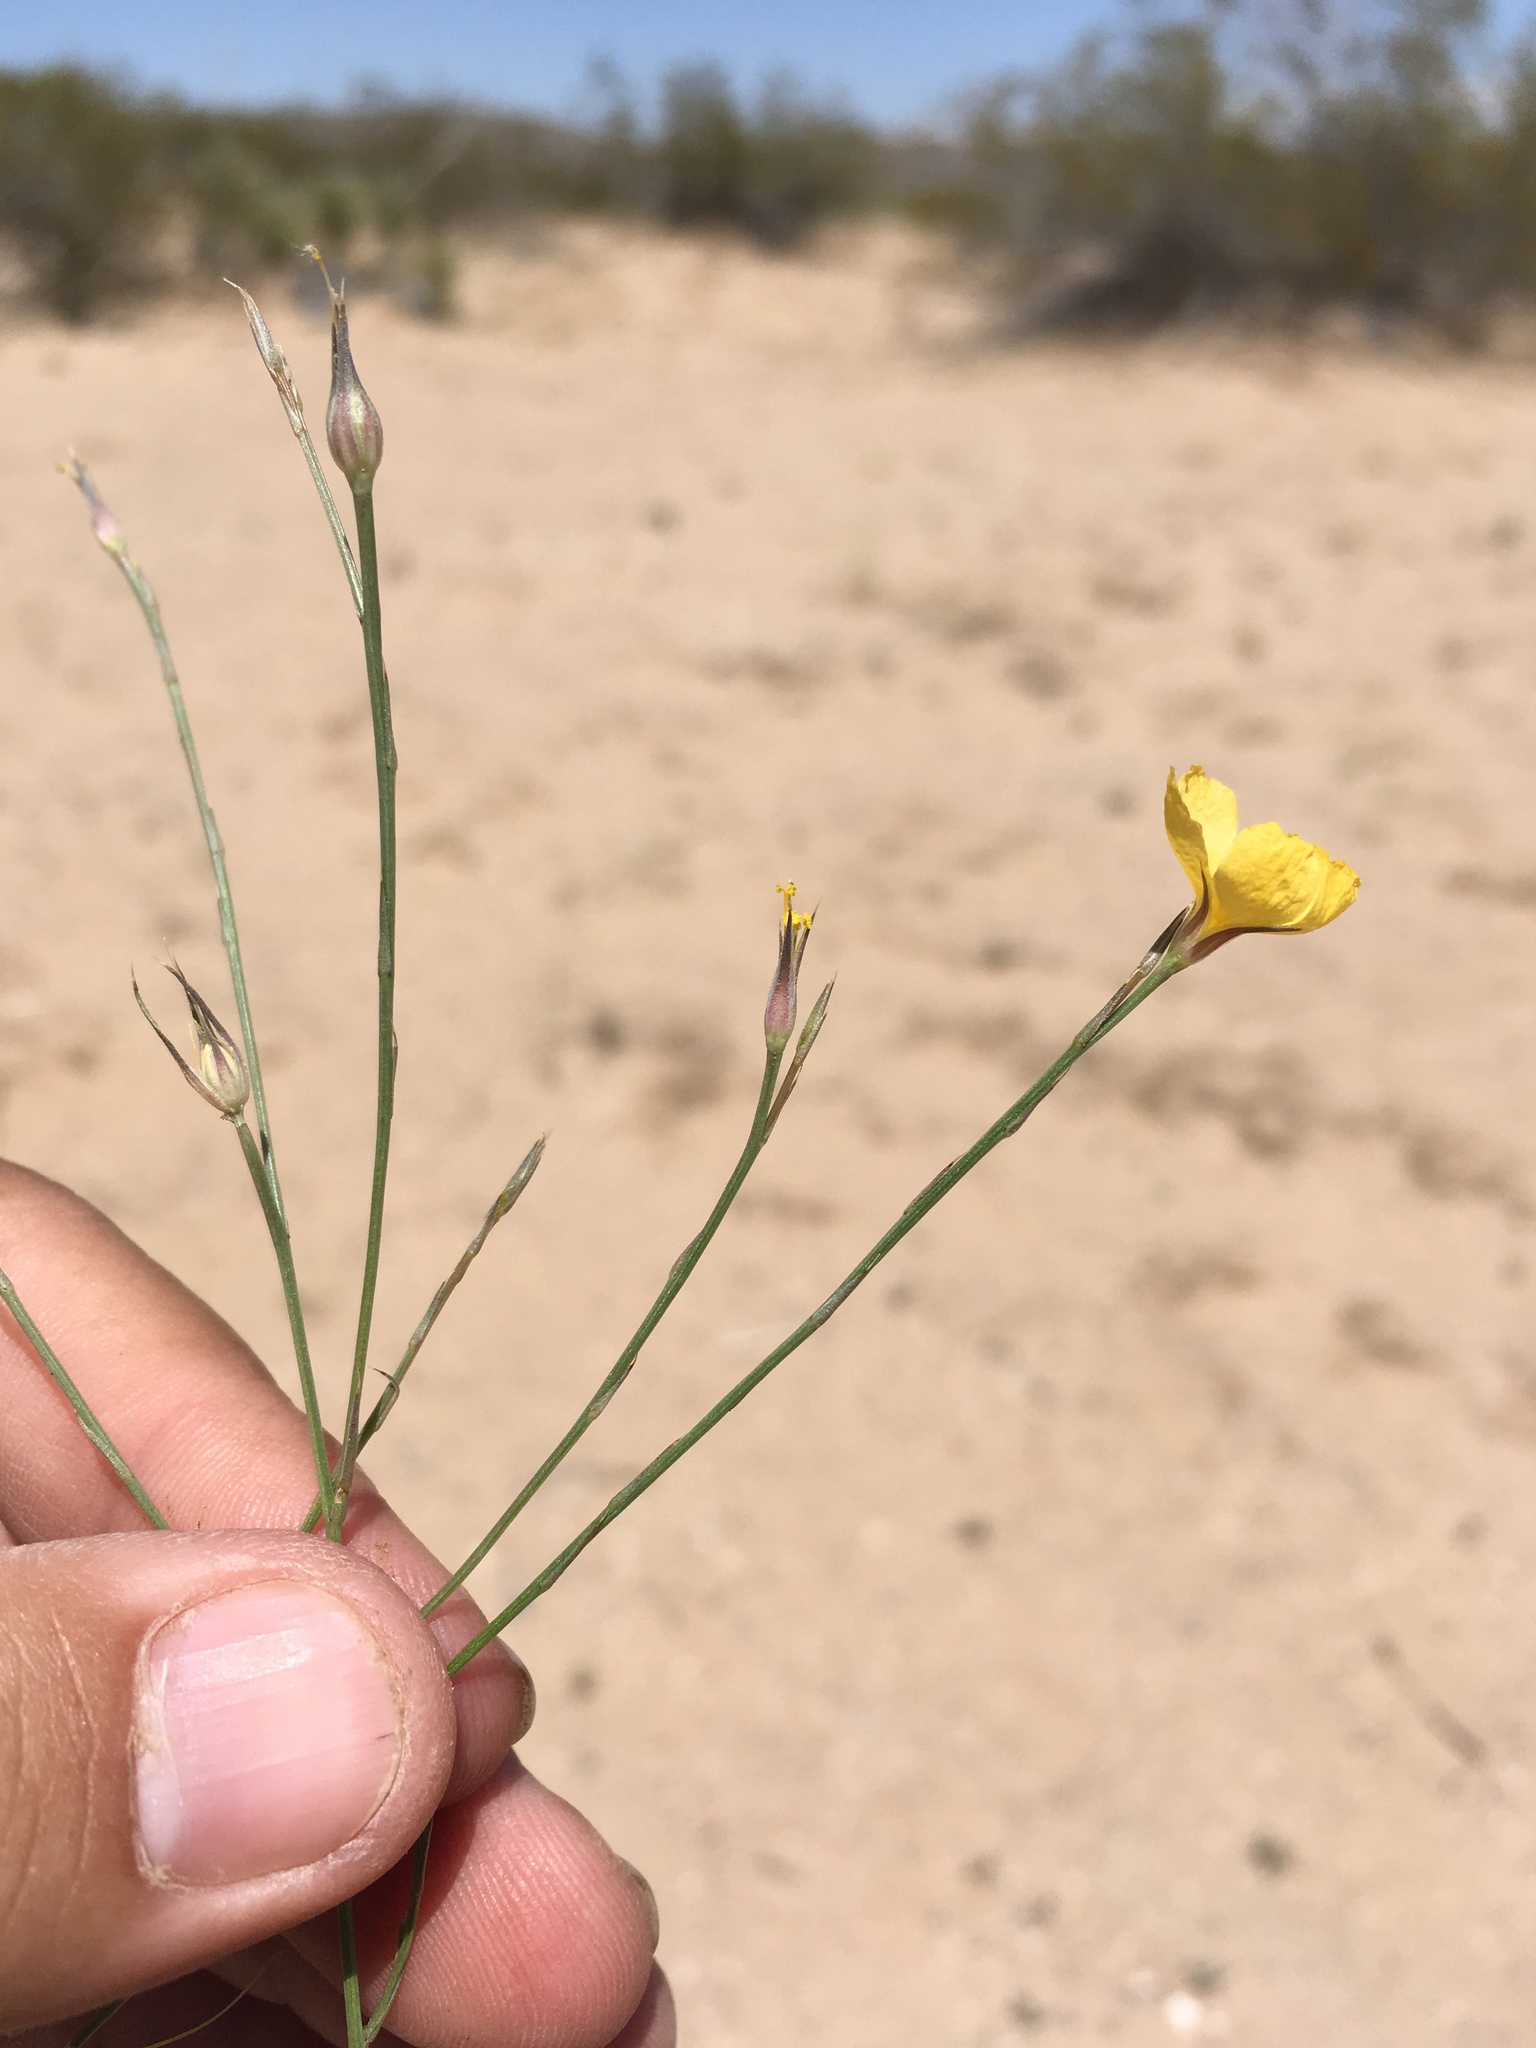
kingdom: Plantae
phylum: Tracheophyta
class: Magnoliopsida
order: Malpighiales
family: Linaceae
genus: Linum
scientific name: Linum aristatum
